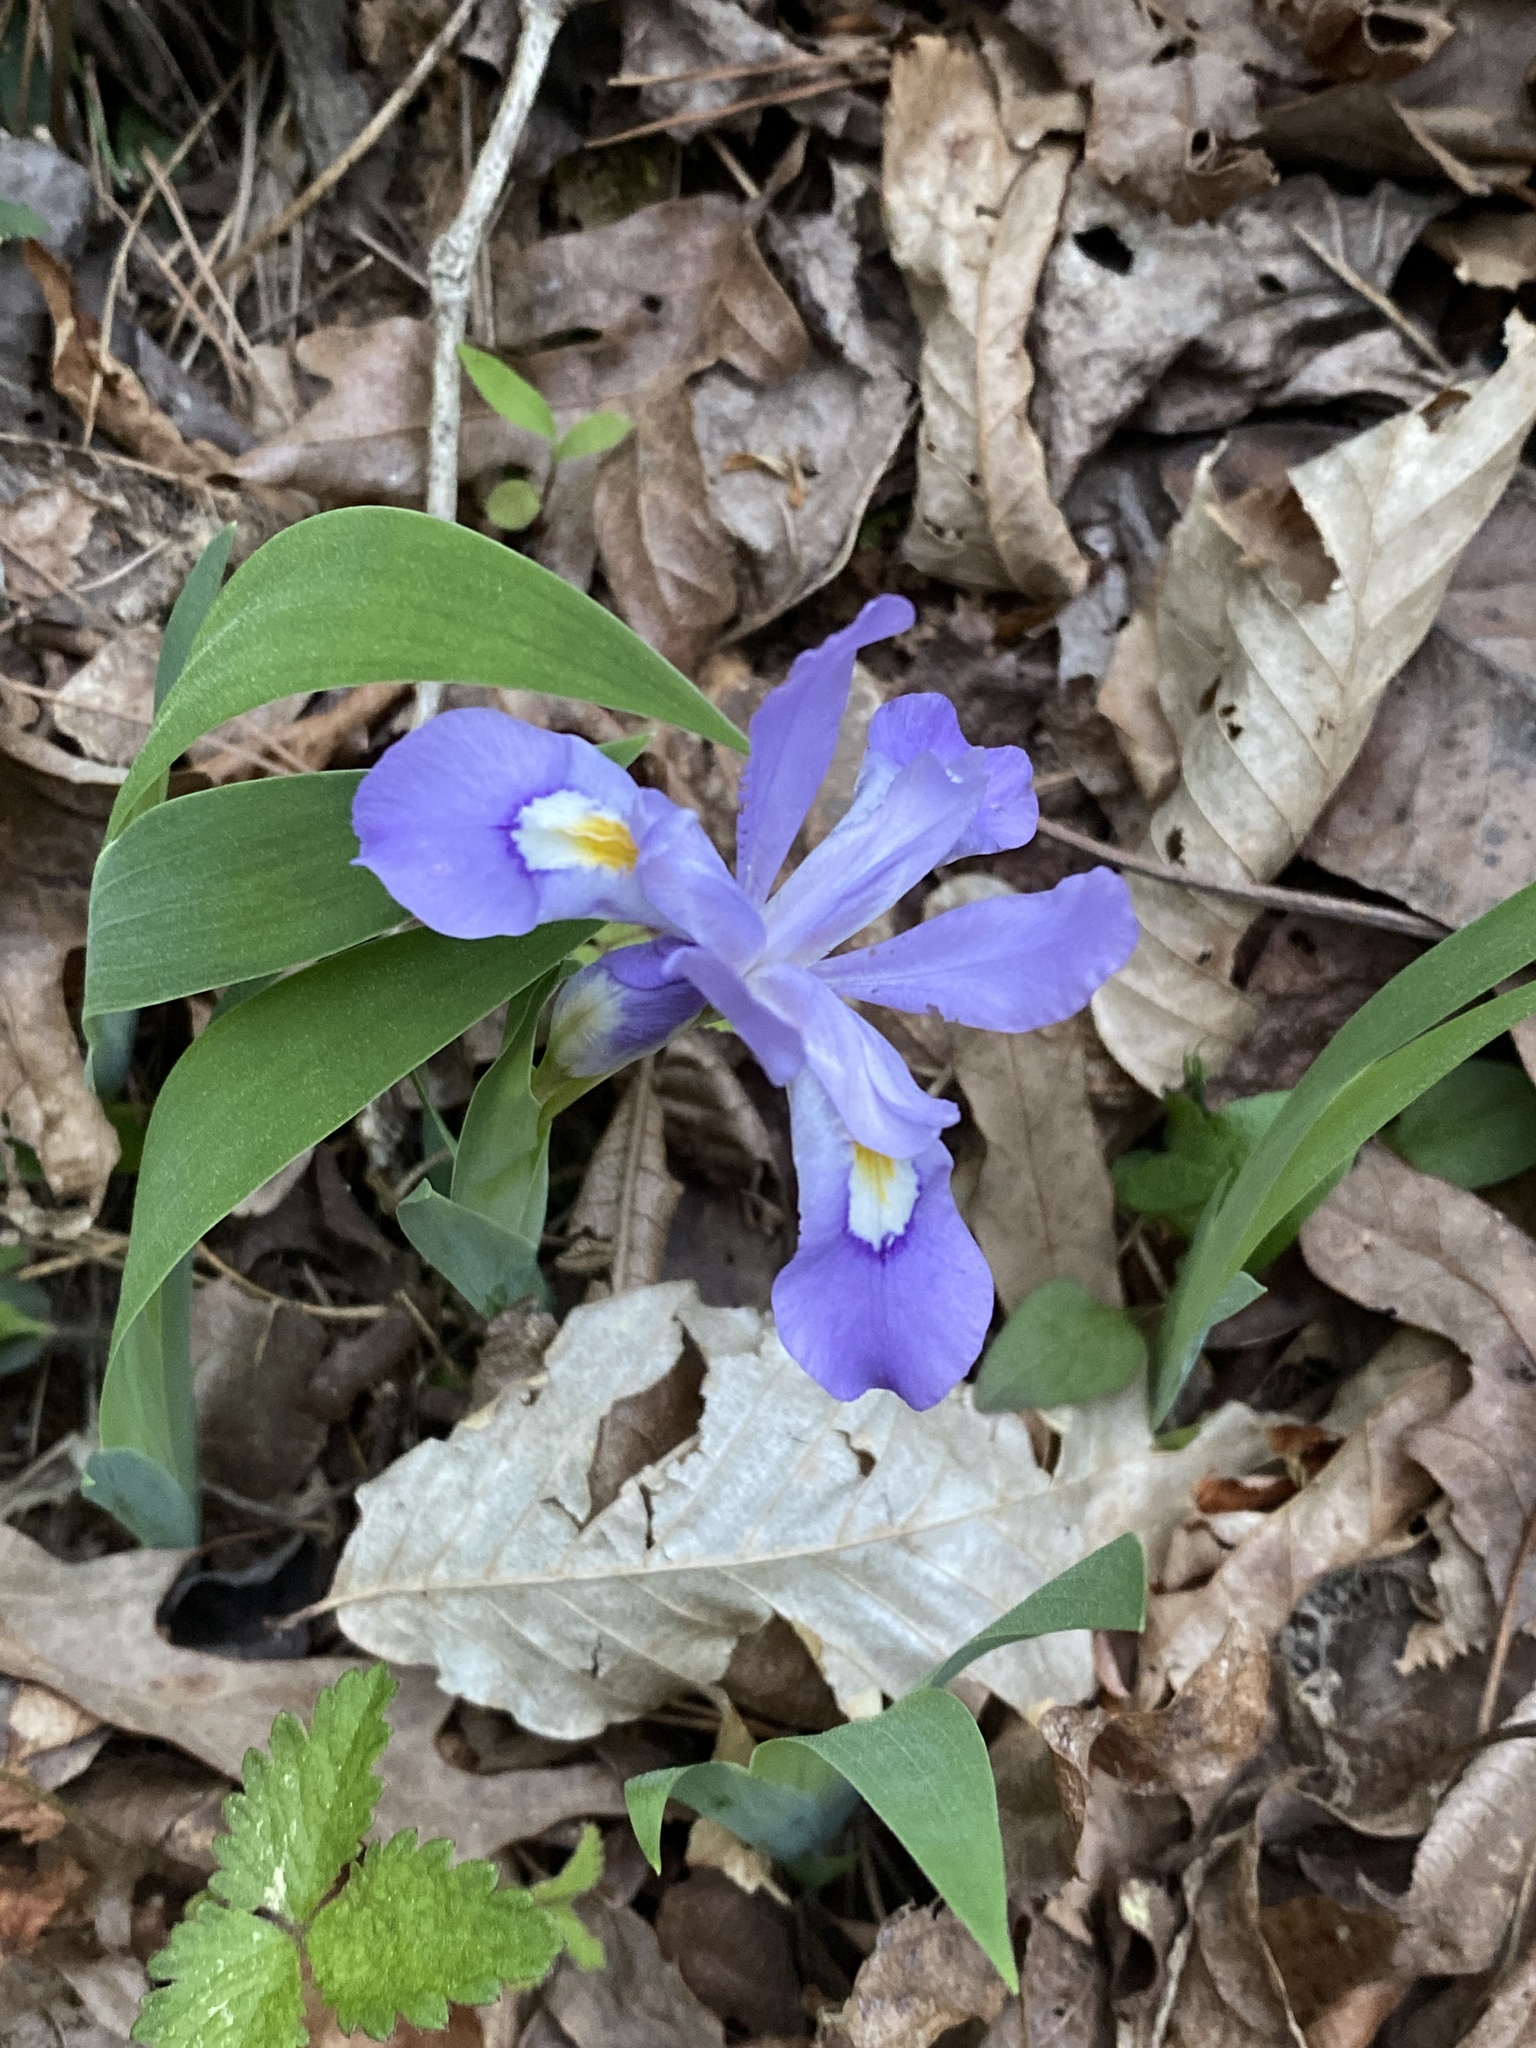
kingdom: Plantae
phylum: Tracheophyta
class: Liliopsida
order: Asparagales
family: Iridaceae
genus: Iris
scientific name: Iris cristata
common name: Crested iris
